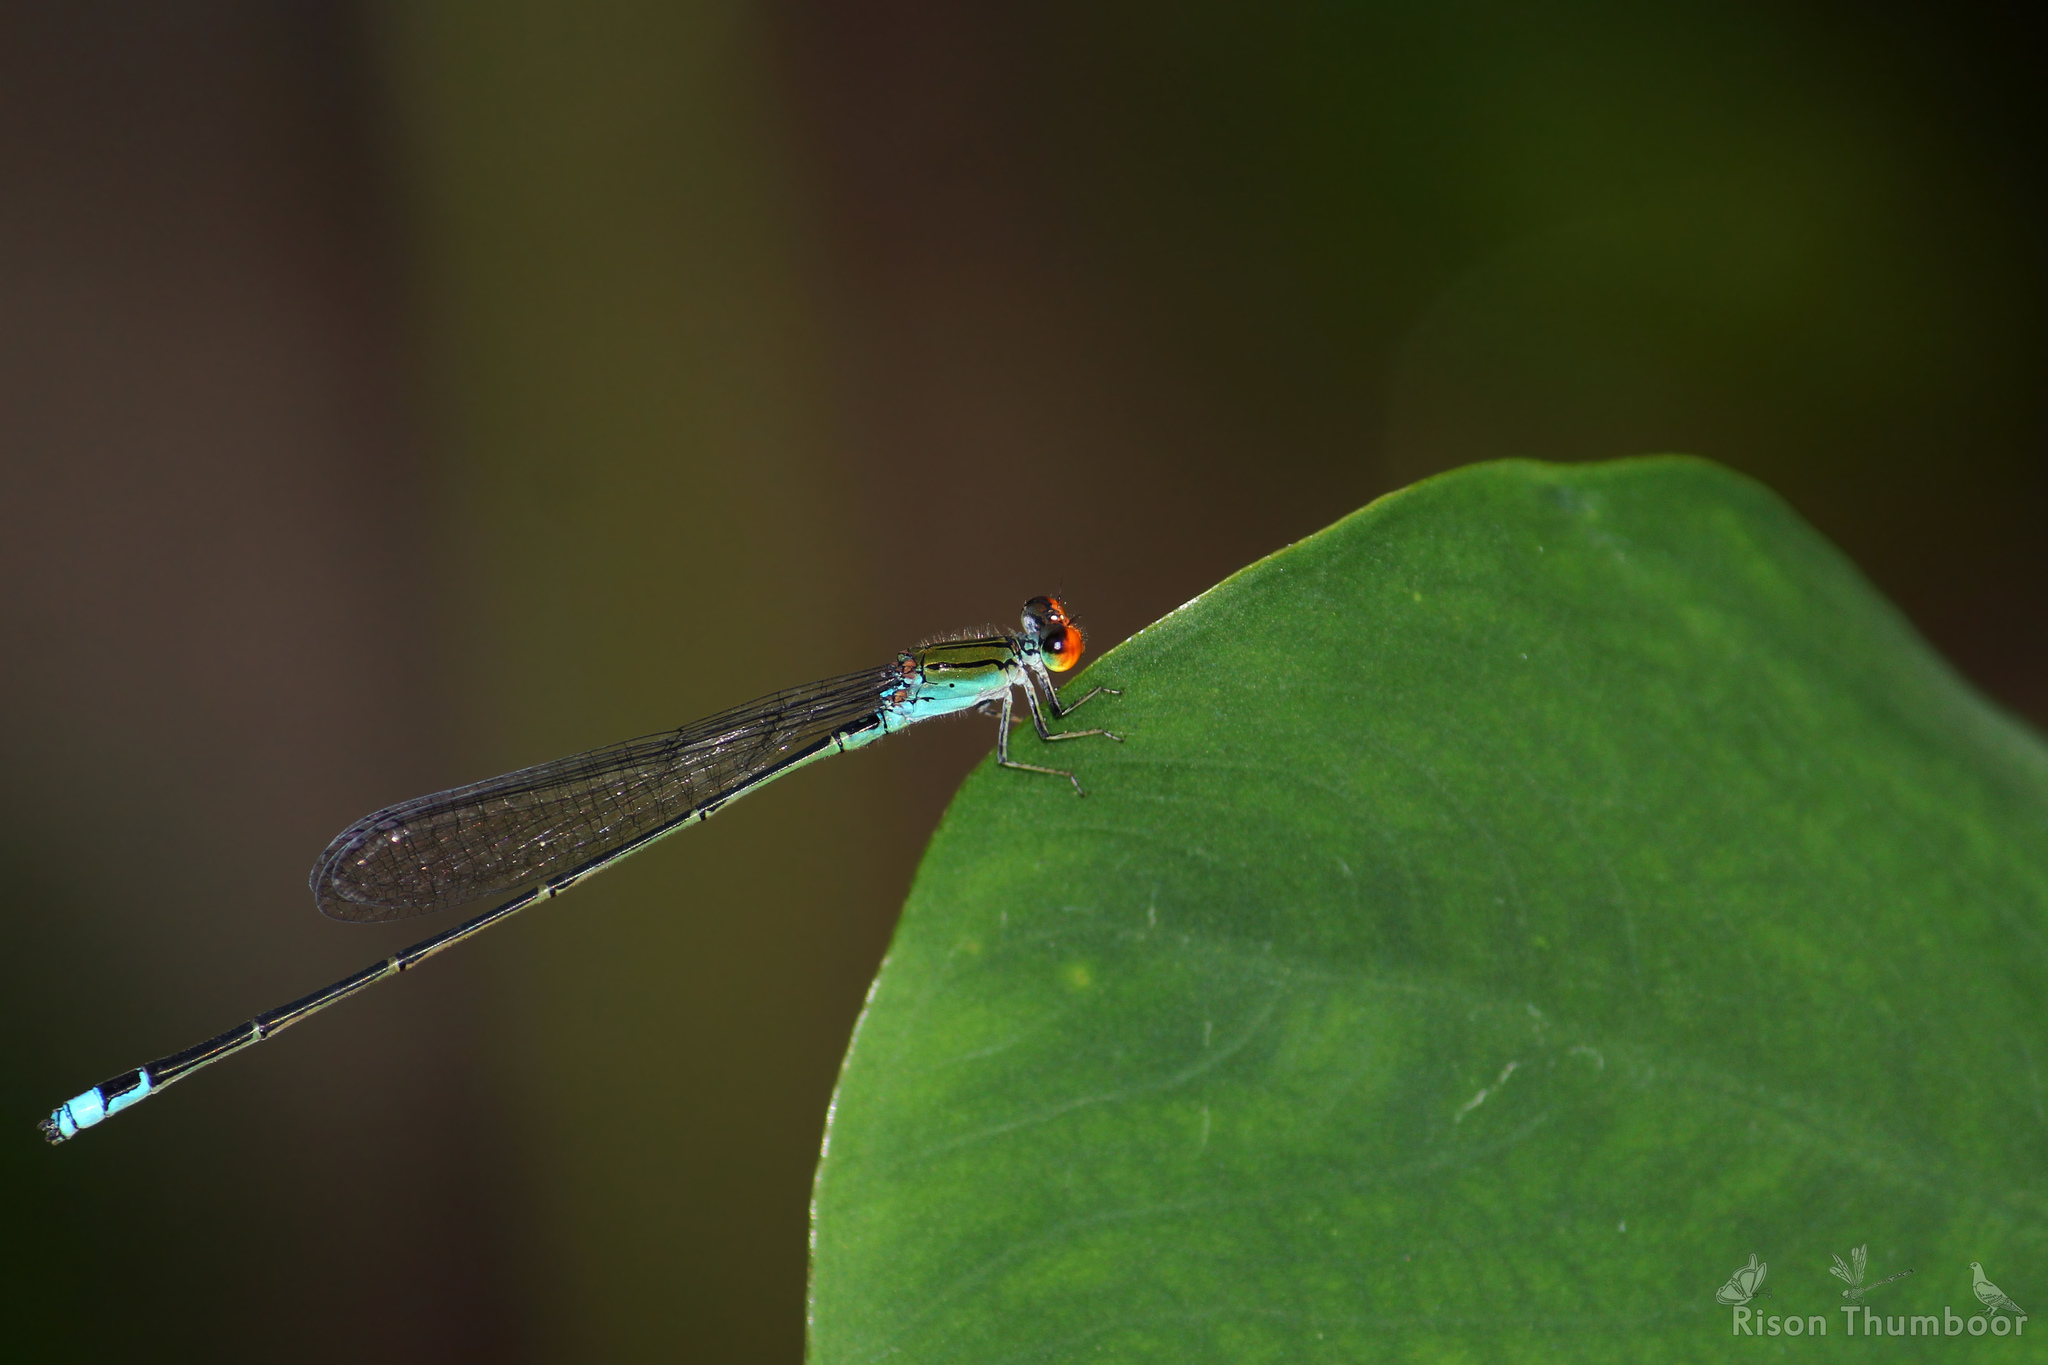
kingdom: Animalia
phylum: Arthropoda
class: Insecta
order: Odonata
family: Coenagrionidae
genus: Pseudagrion
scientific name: Pseudagrion rubriceps
